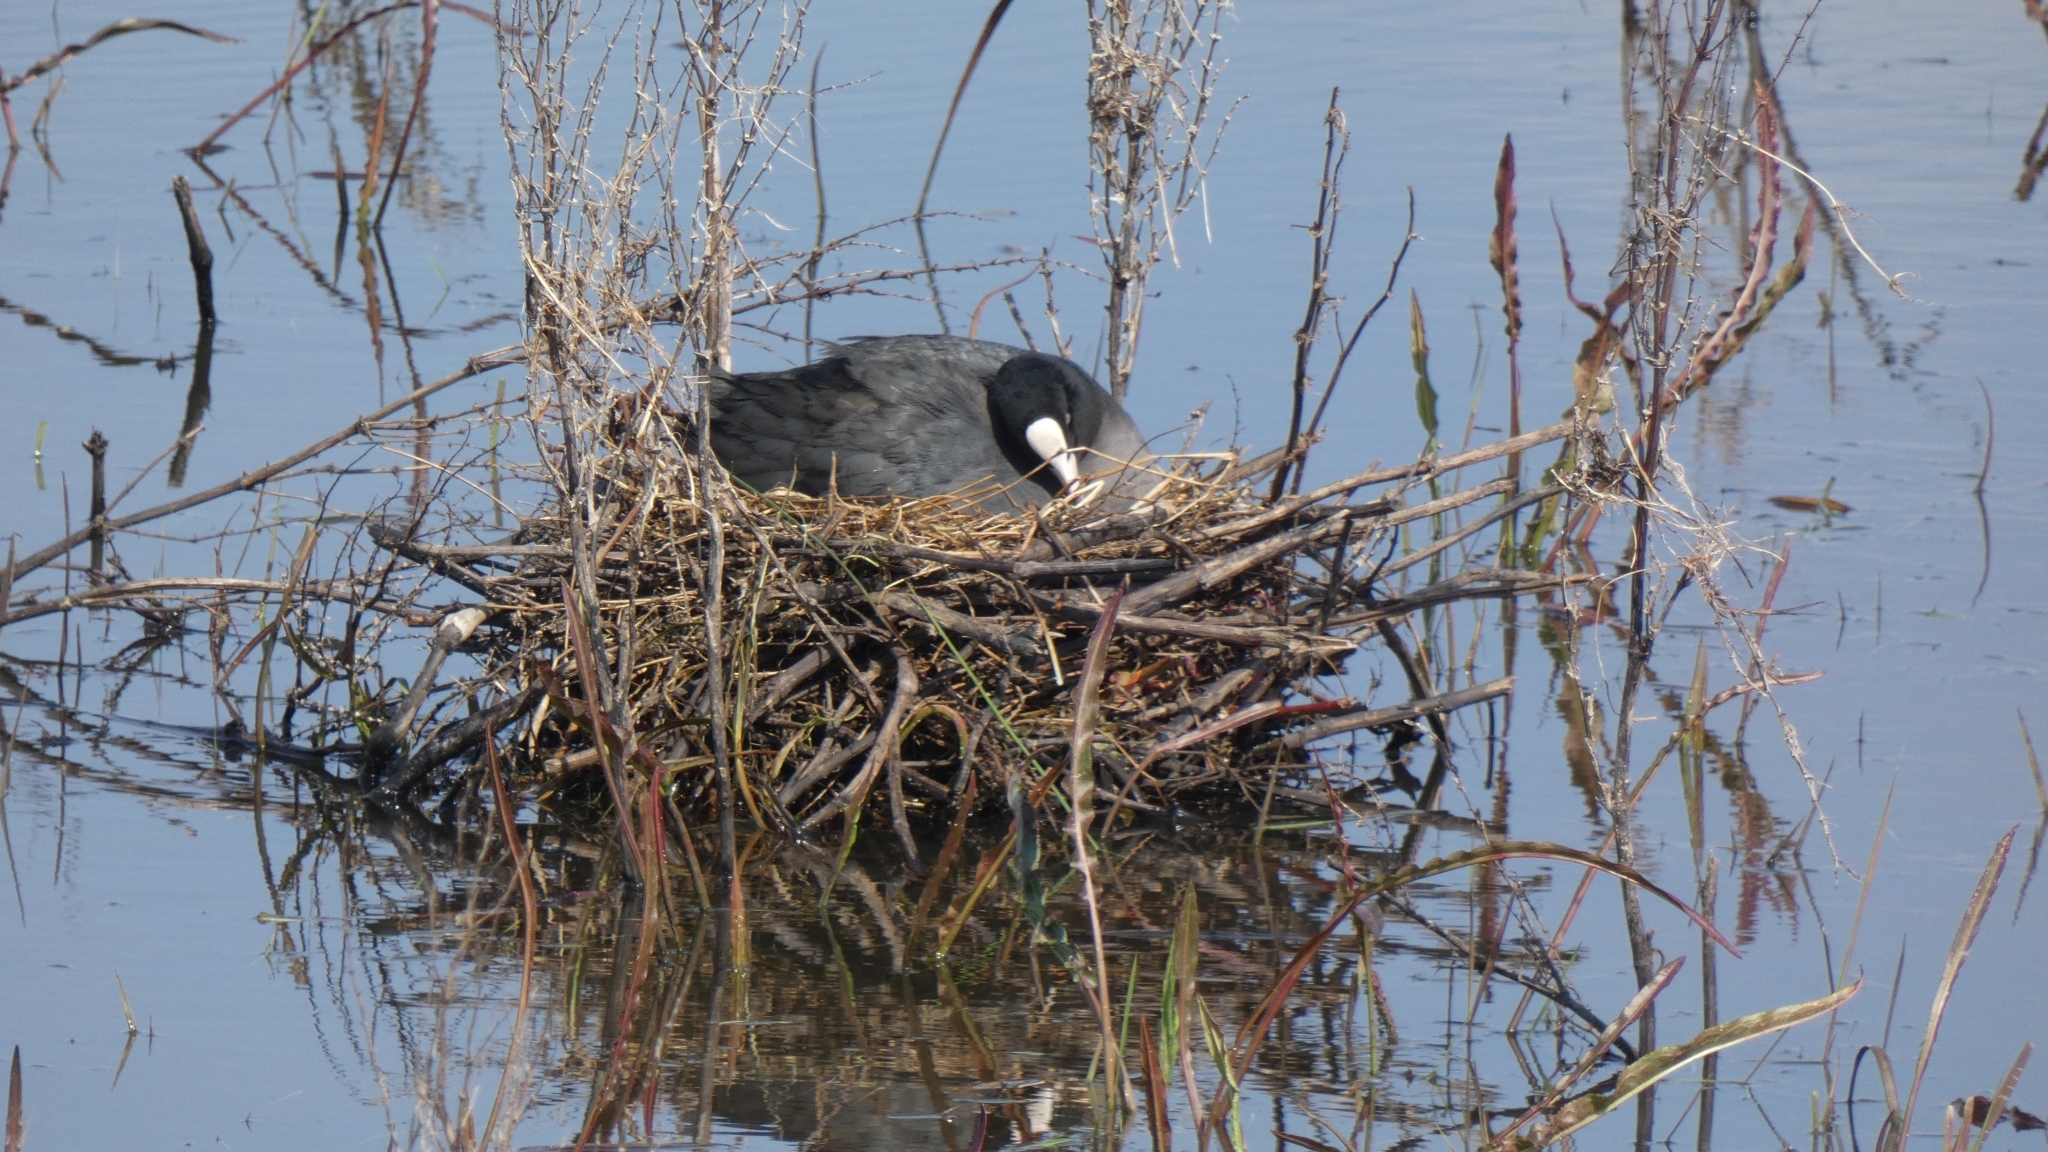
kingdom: Animalia
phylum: Chordata
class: Aves
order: Gruiformes
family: Rallidae
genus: Fulica
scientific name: Fulica atra
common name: Eurasian coot
